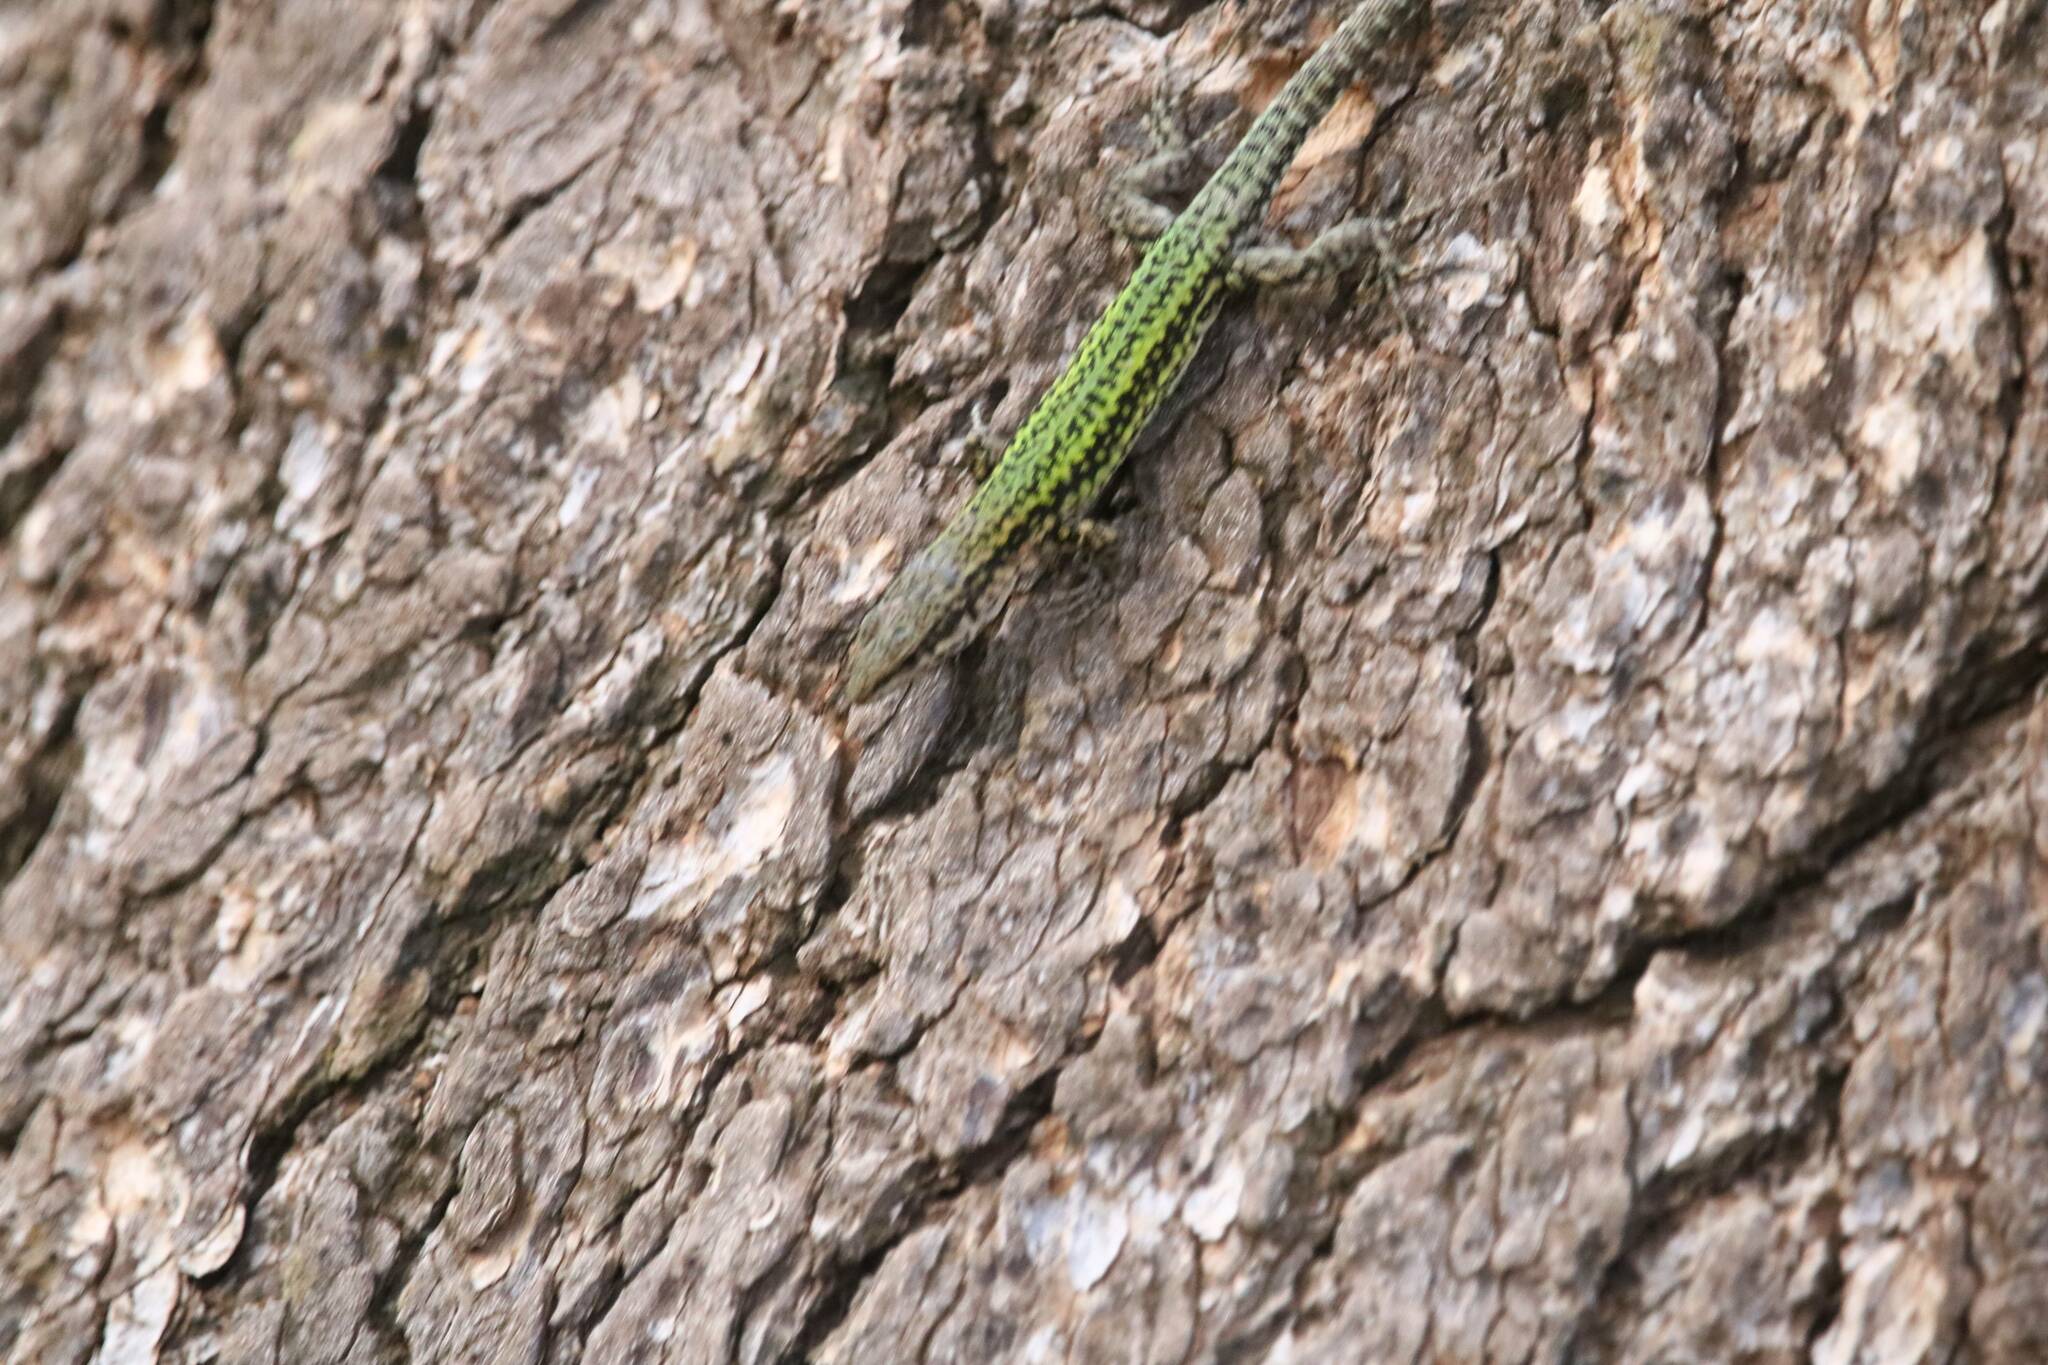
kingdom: Animalia
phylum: Chordata
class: Squamata
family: Lacertidae
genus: Podarcis
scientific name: Podarcis vaucheri
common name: Vaucher's wall lizard
